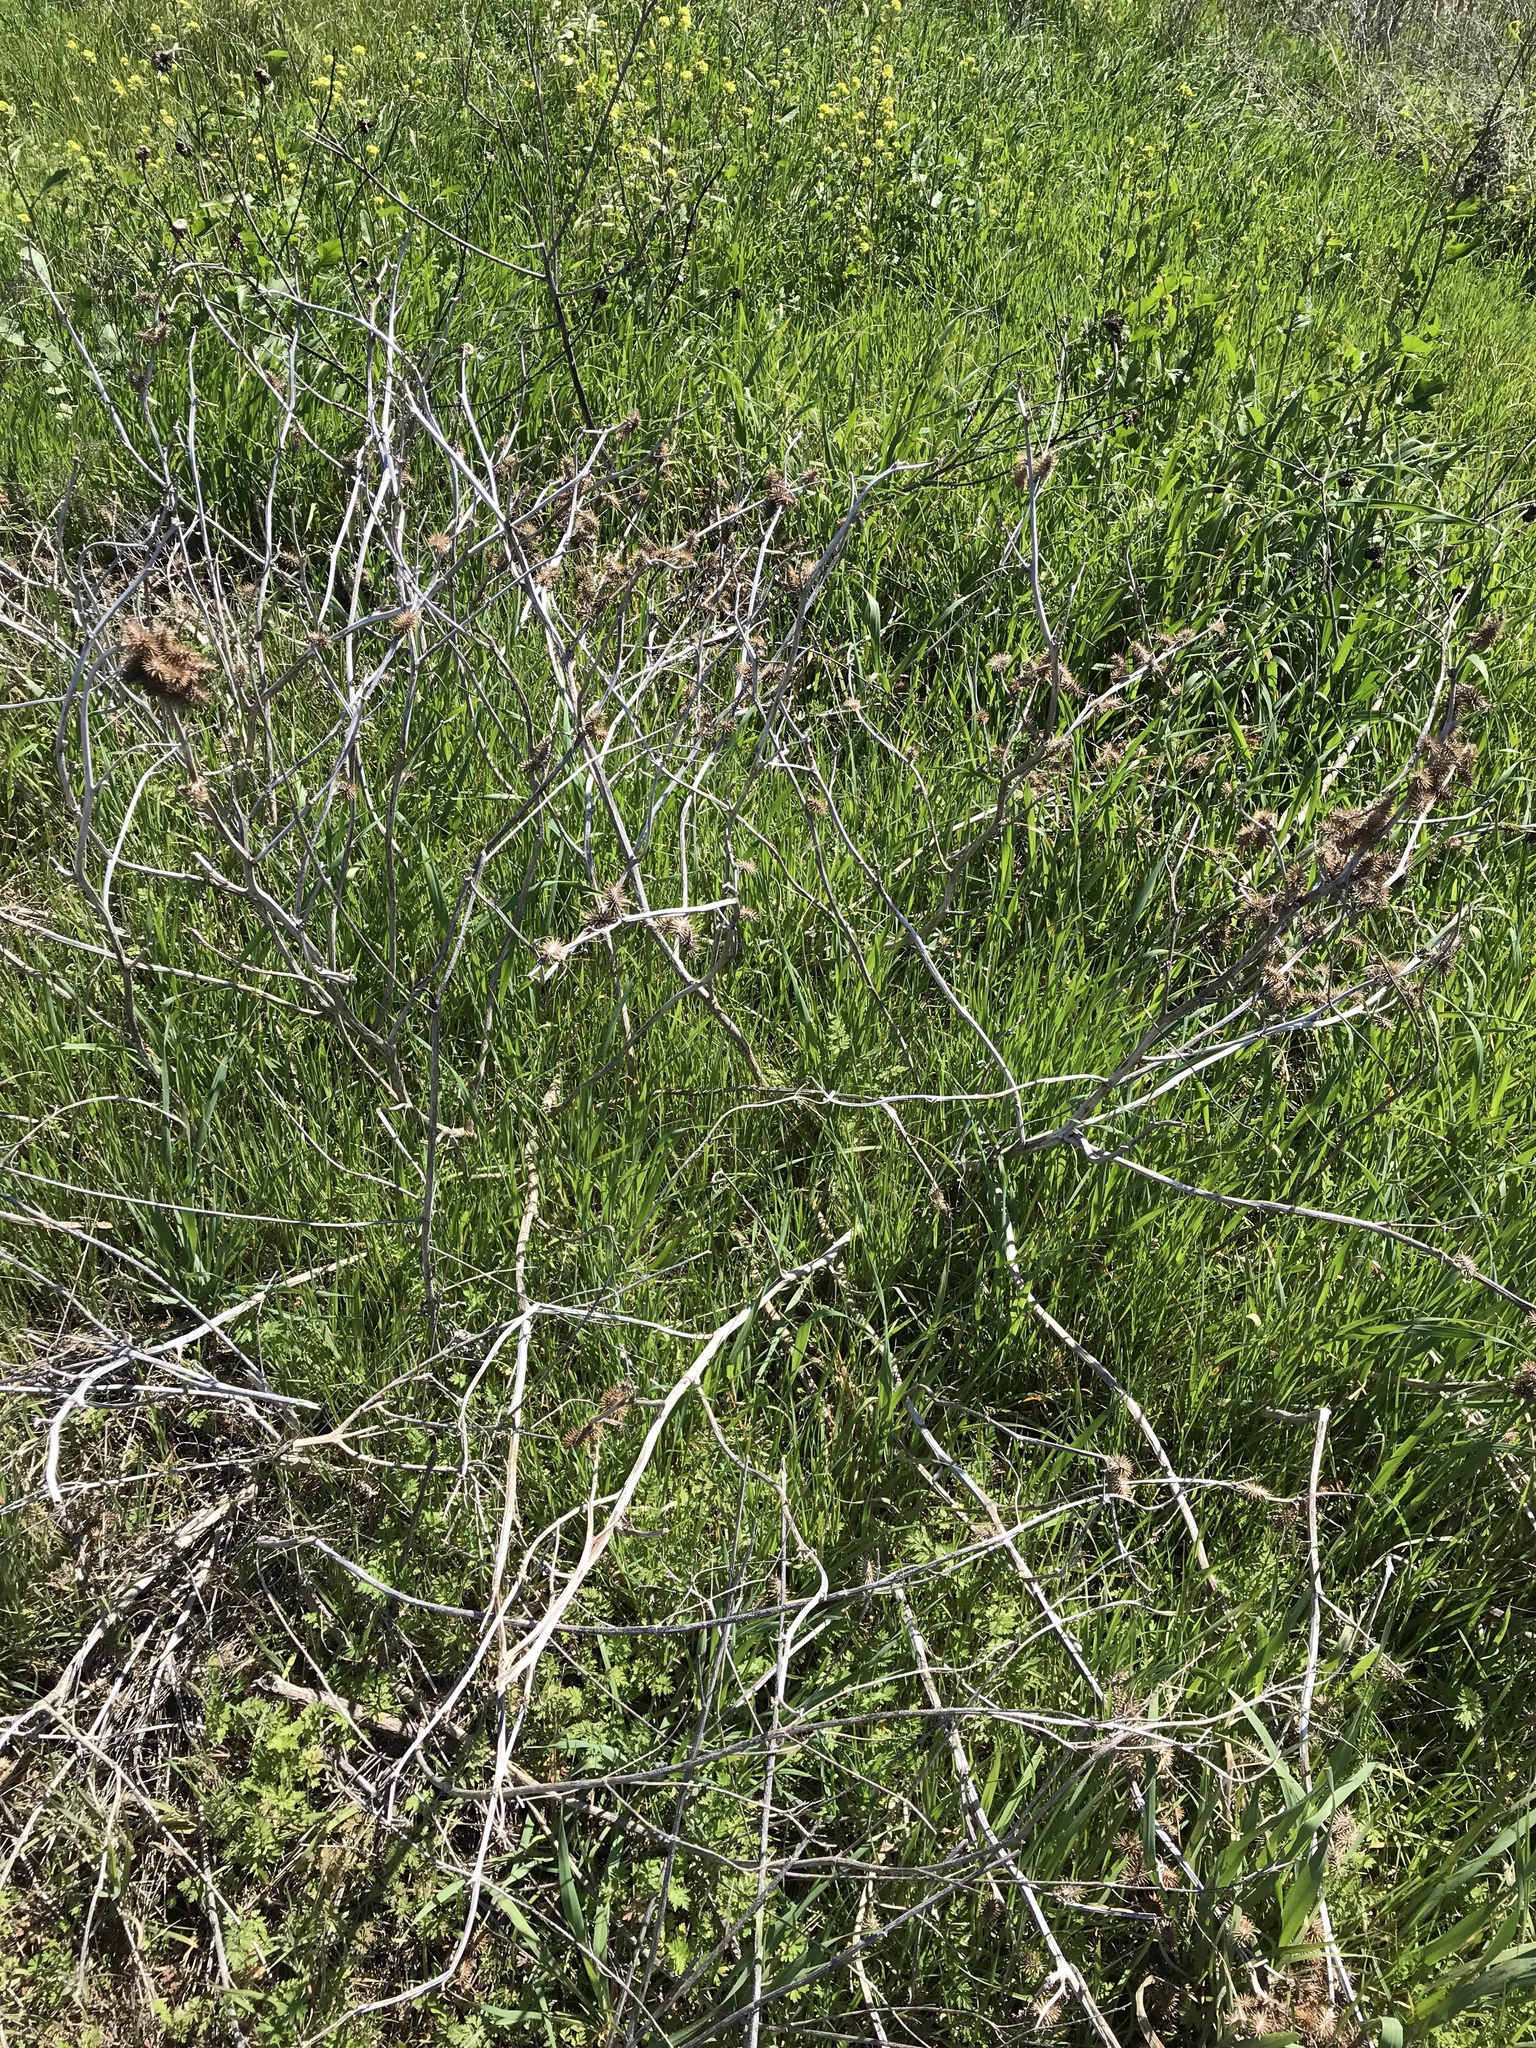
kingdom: Plantae
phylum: Tracheophyta
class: Magnoliopsida
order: Asterales
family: Asteraceae
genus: Xanthium
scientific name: Xanthium strumarium
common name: Rough cocklebur
